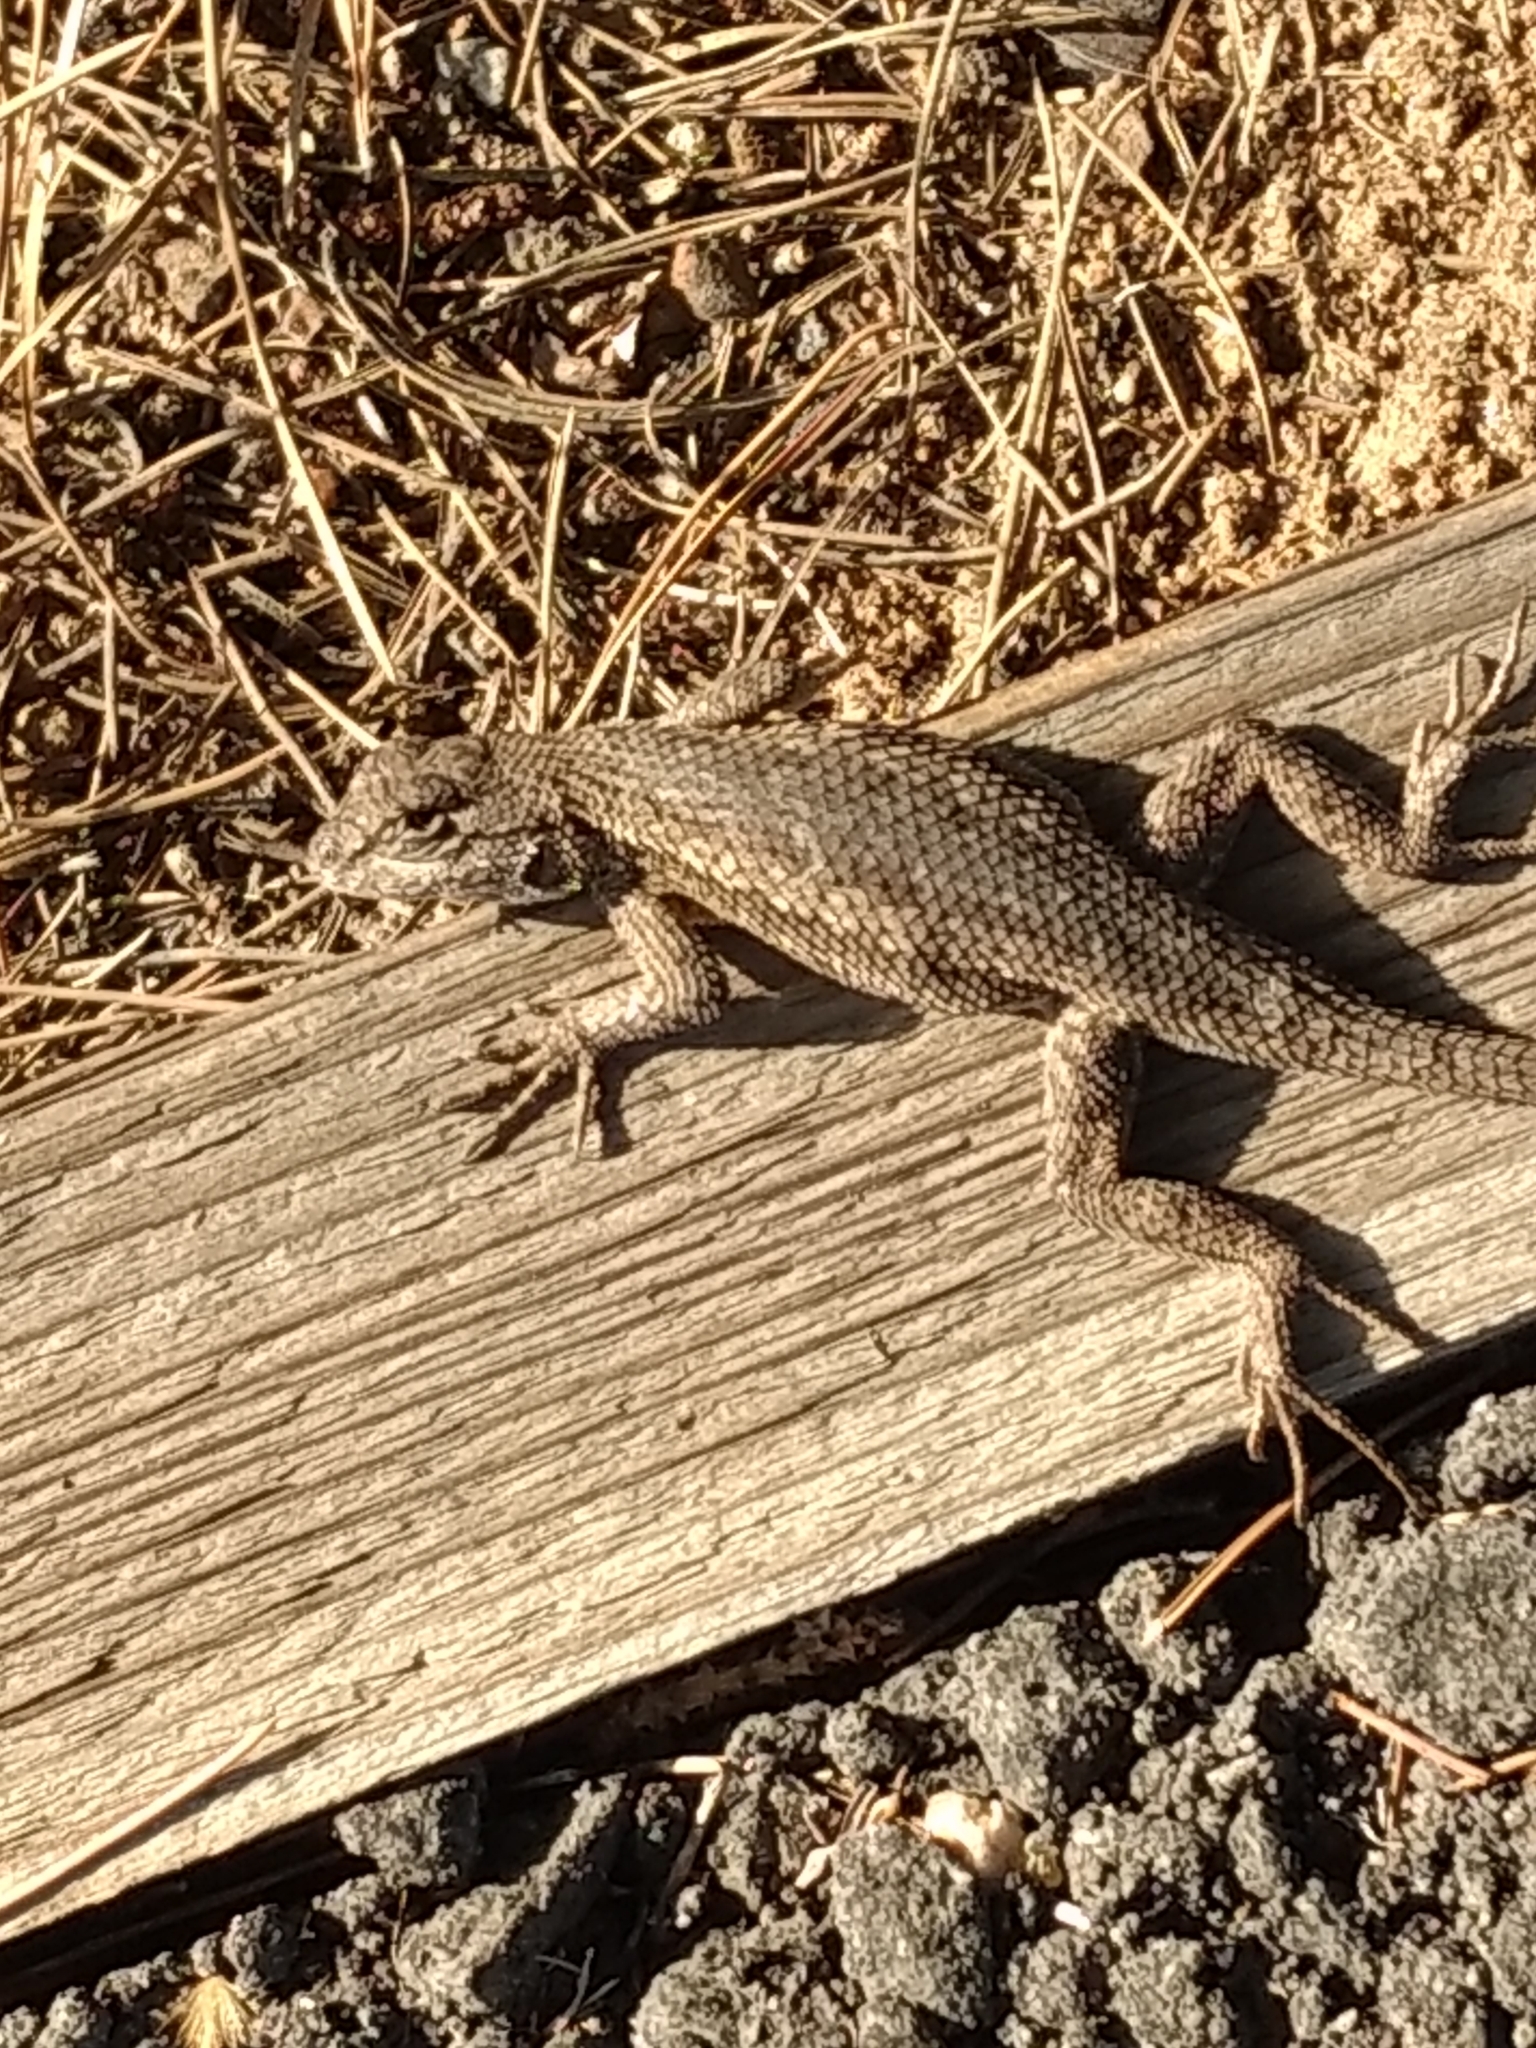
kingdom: Animalia
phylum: Chordata
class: Squamata
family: Phrynosomatidae
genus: Sceloporus
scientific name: Sceloporus occidentalis
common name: Western fence lizard
